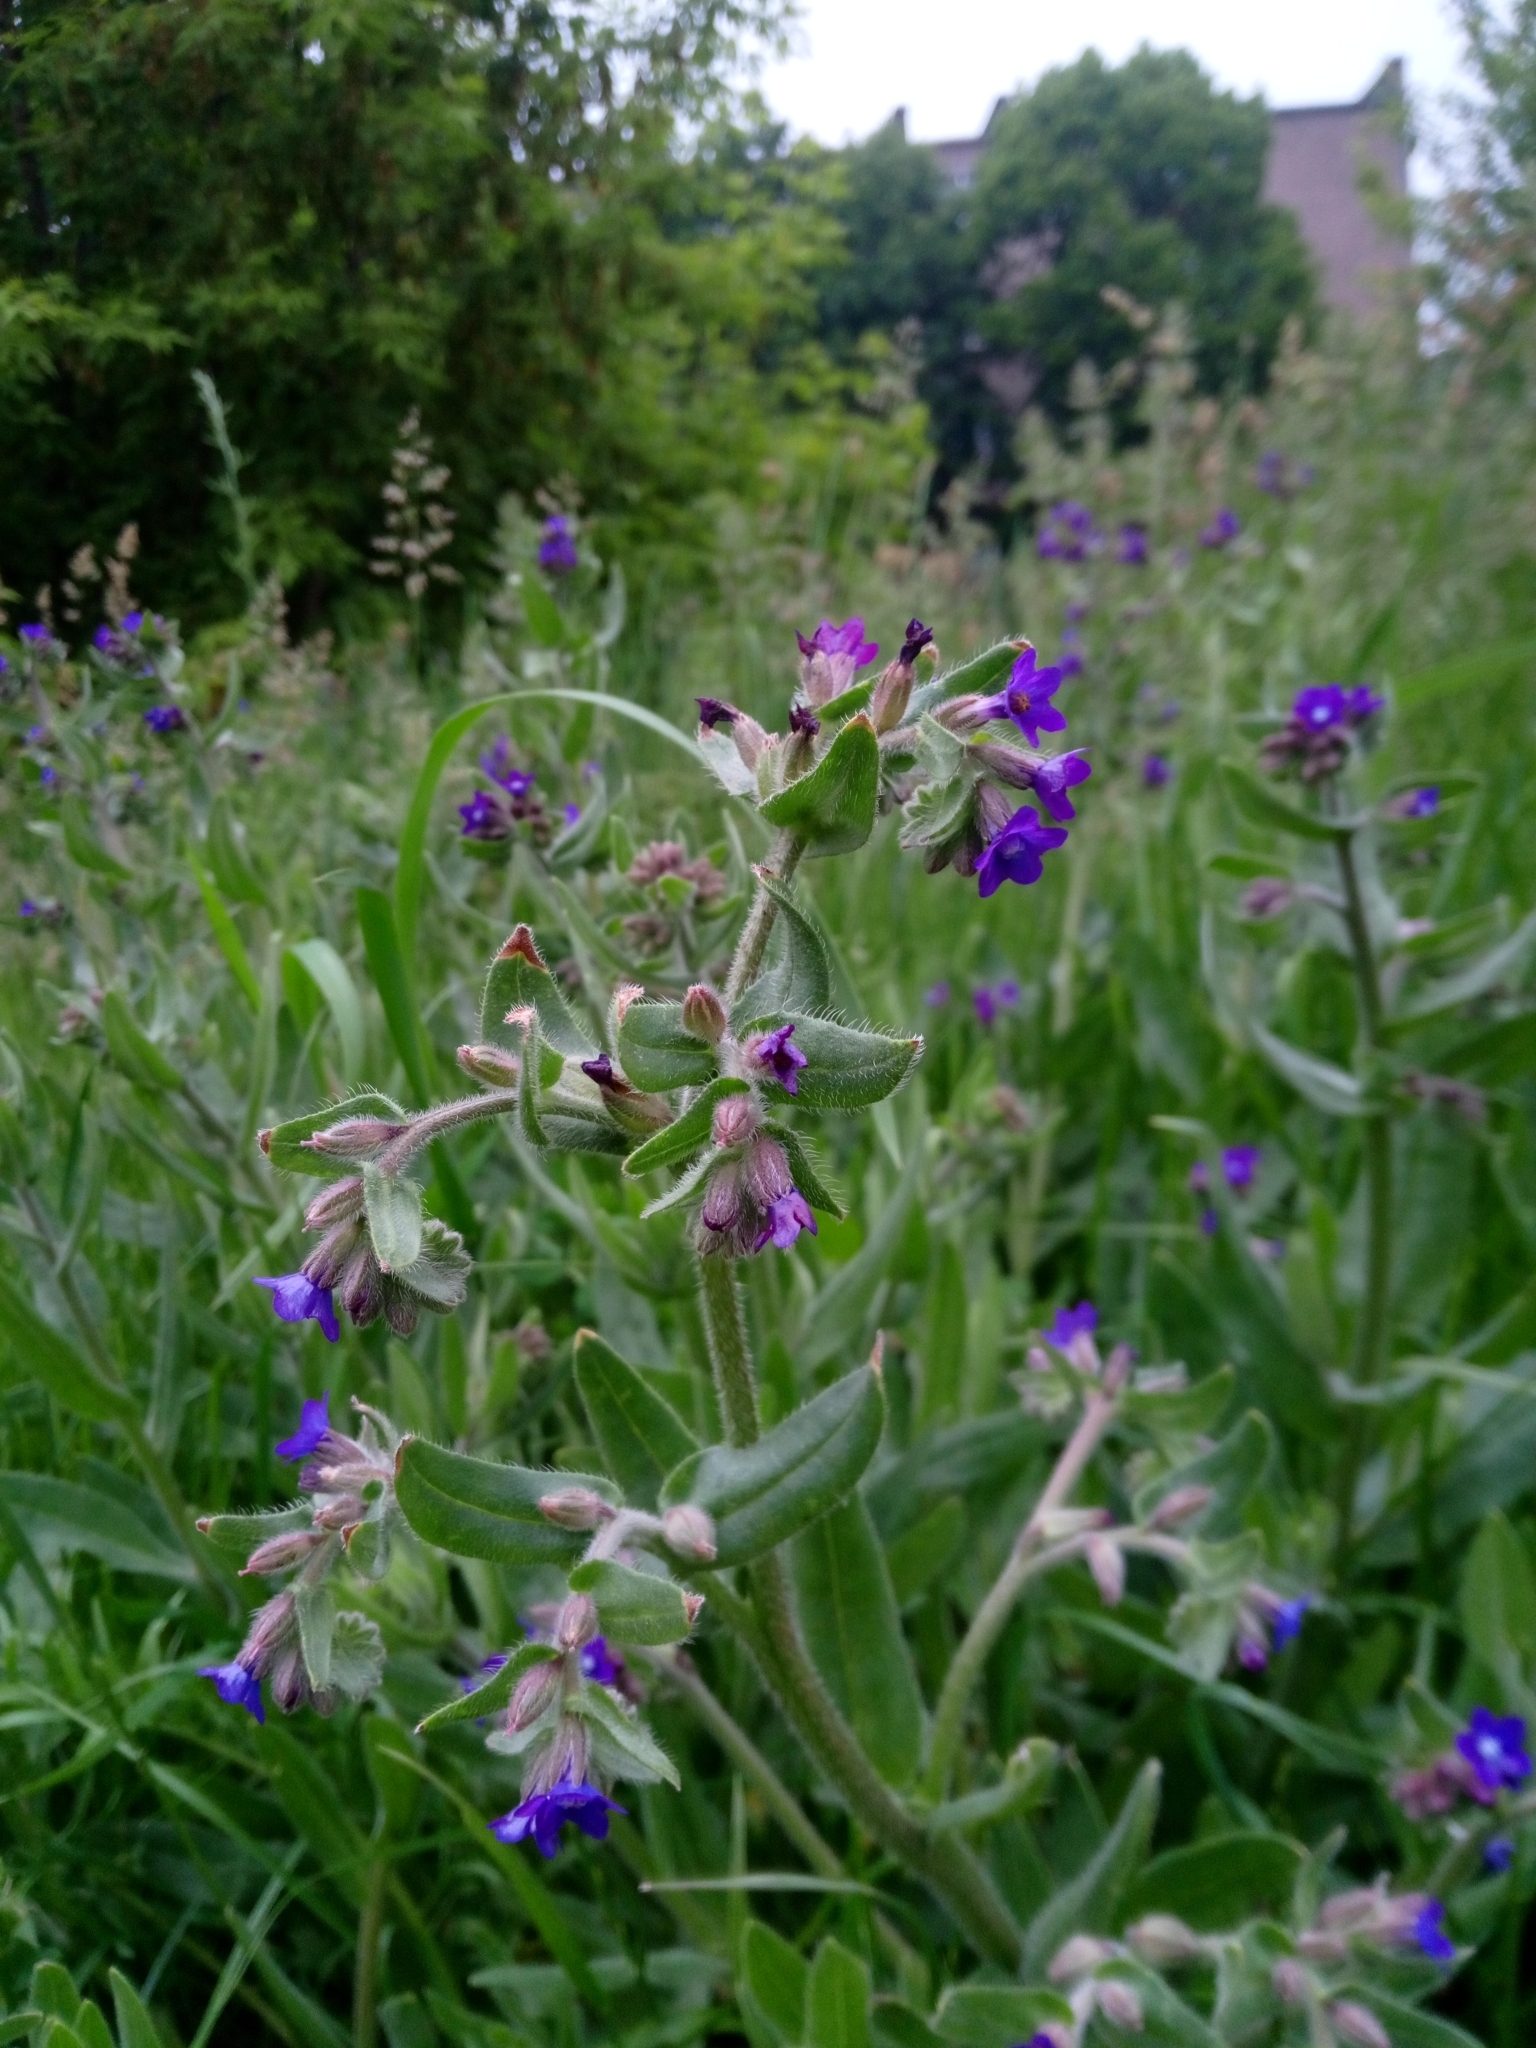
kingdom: Plantae
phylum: Tracheophyta
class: Magnoliopsida
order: Boraginales
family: Boraginaceae
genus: Anchusa
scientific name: Anchusa officinalis
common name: Alkanet
